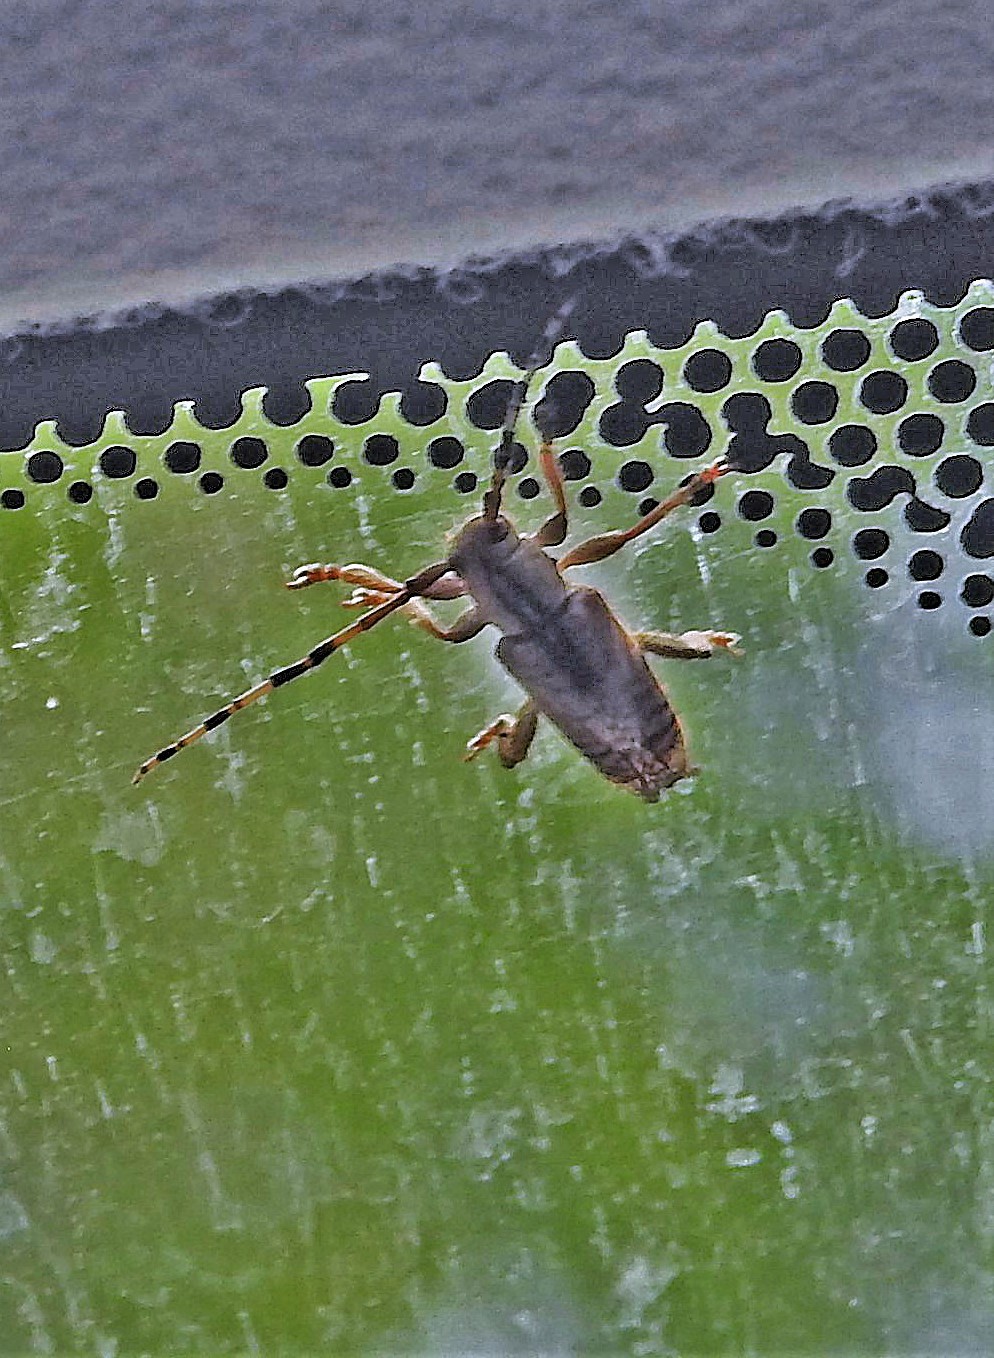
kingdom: Animalia
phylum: Arthropoda
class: Insecta
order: Coleoptera
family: Cerambycidae
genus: Bisaltes
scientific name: Bisaltes spegazzinii
